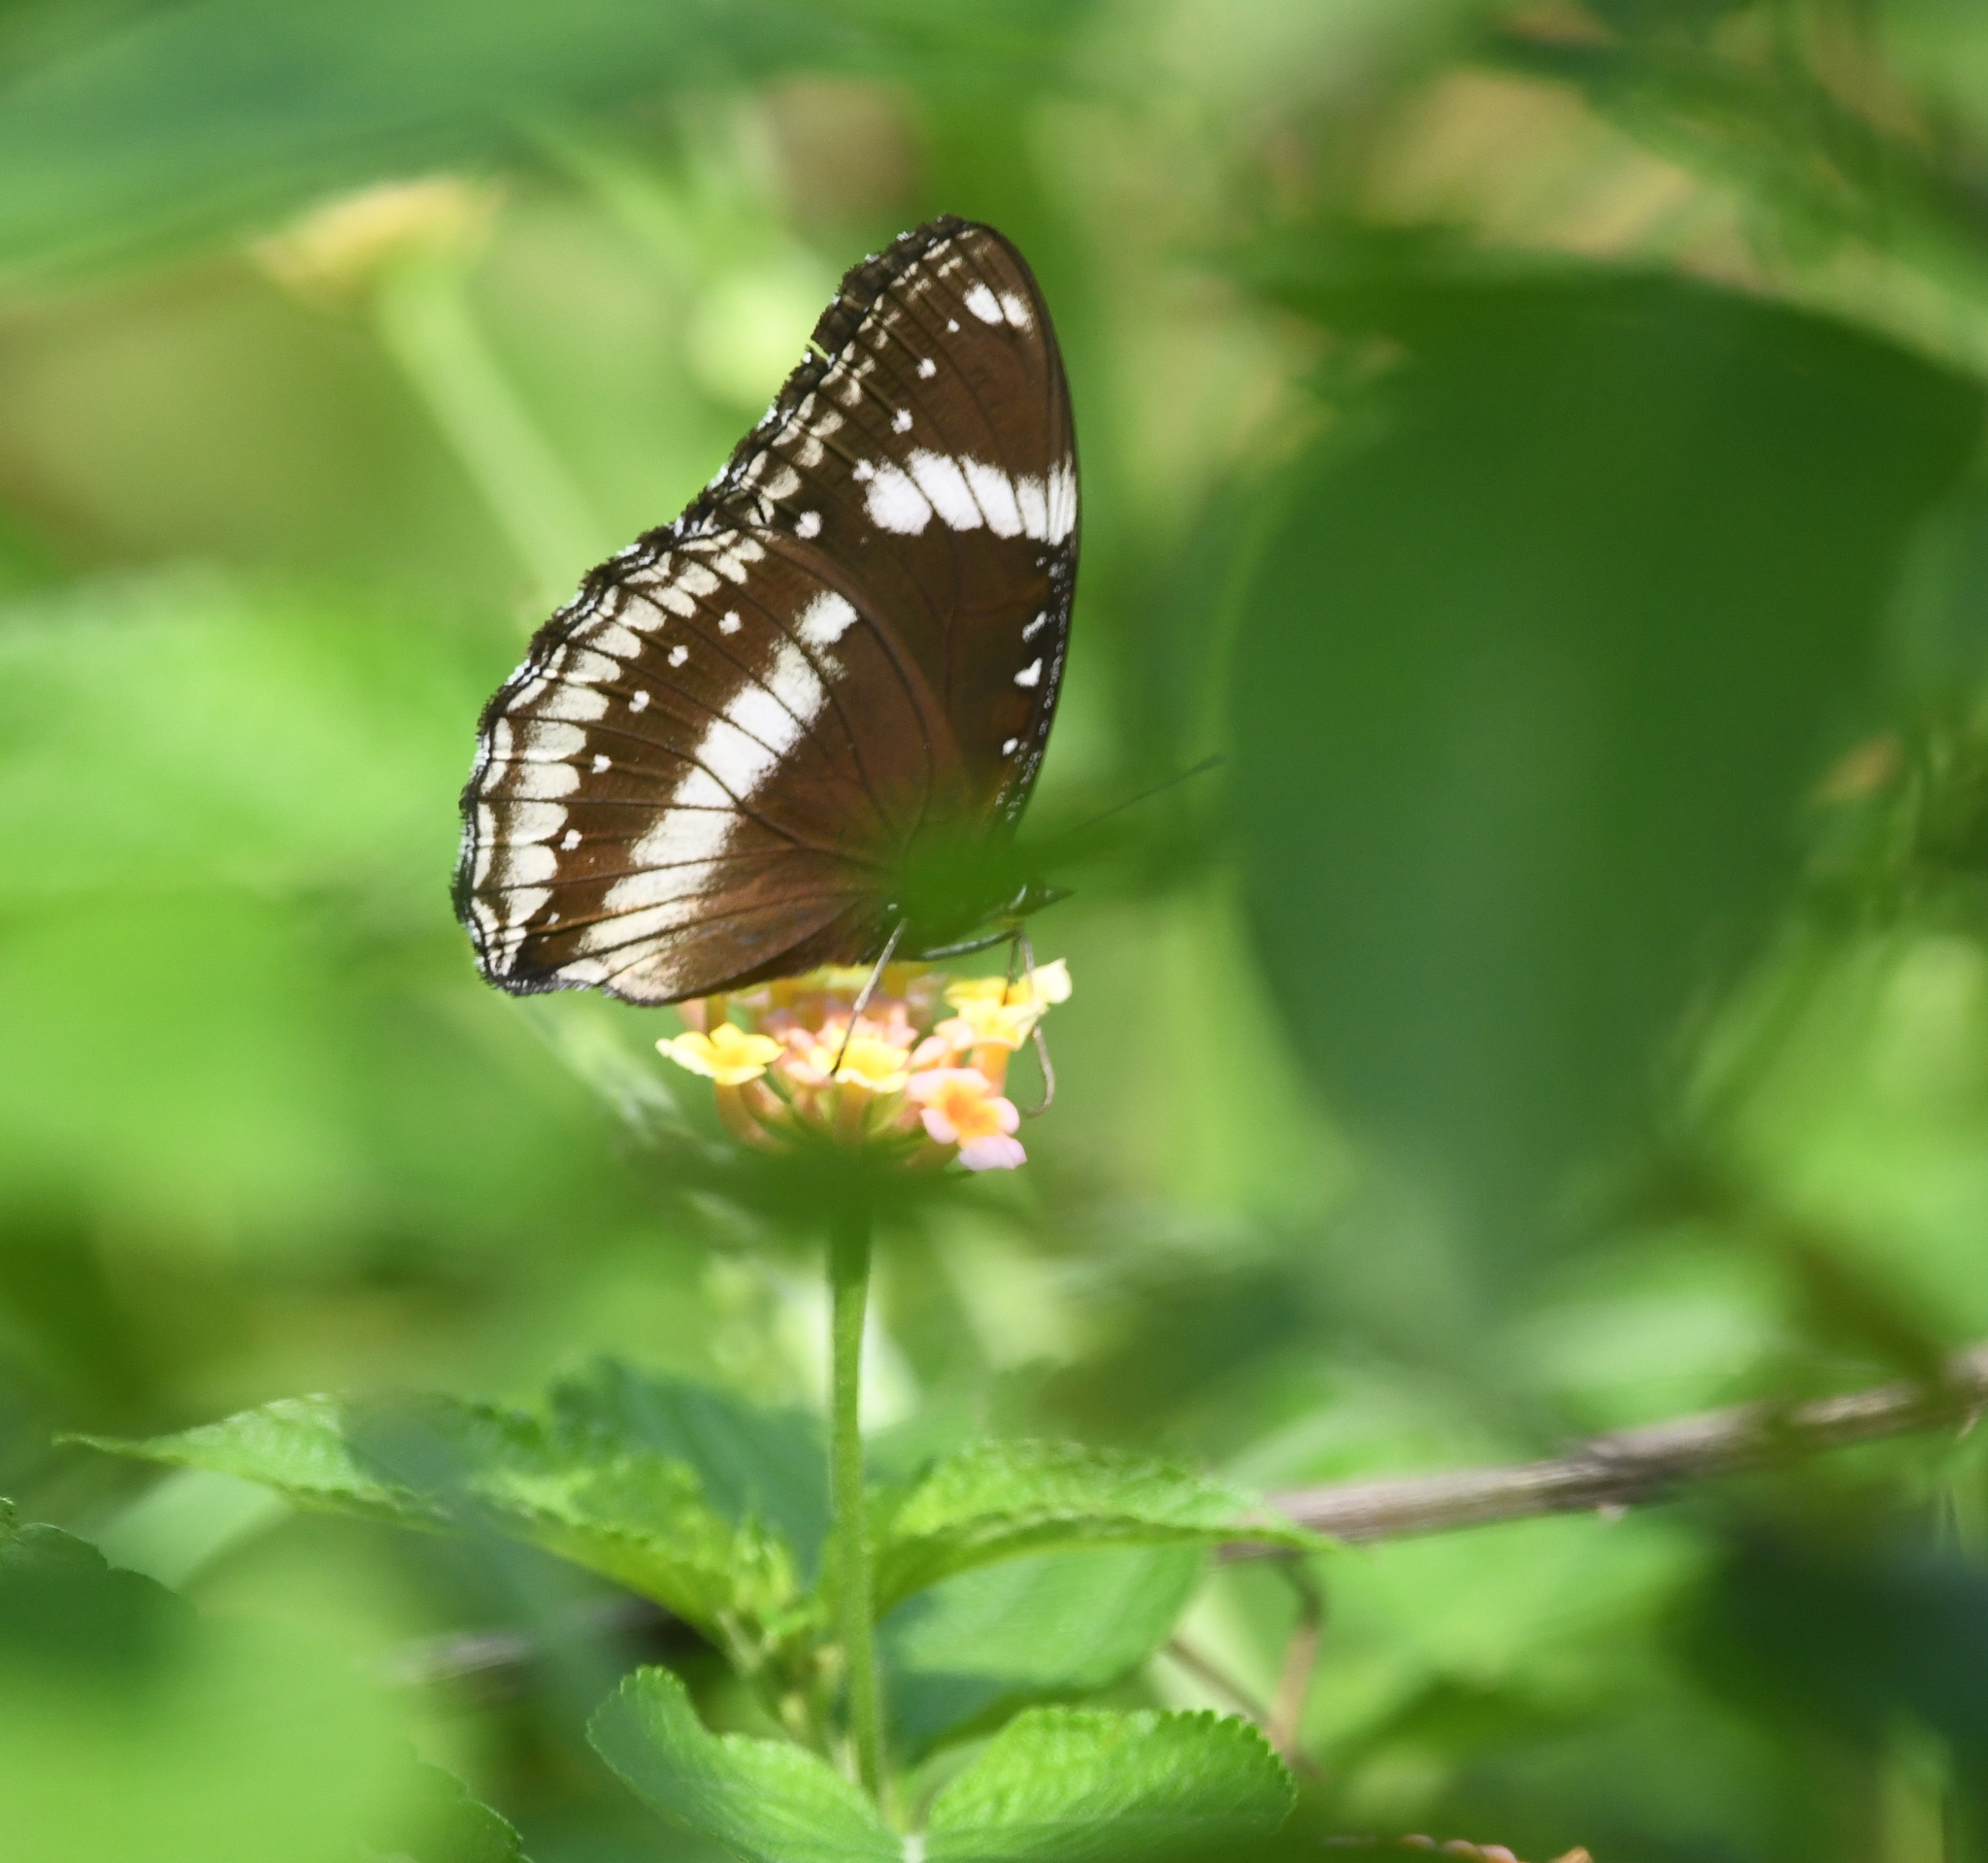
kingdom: Animalia
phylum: Arthropoda
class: Insecta
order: Lepidoptera
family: Nymphalidae
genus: Hypolimnas
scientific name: Hypolimnas bolina
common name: Great eggfly
